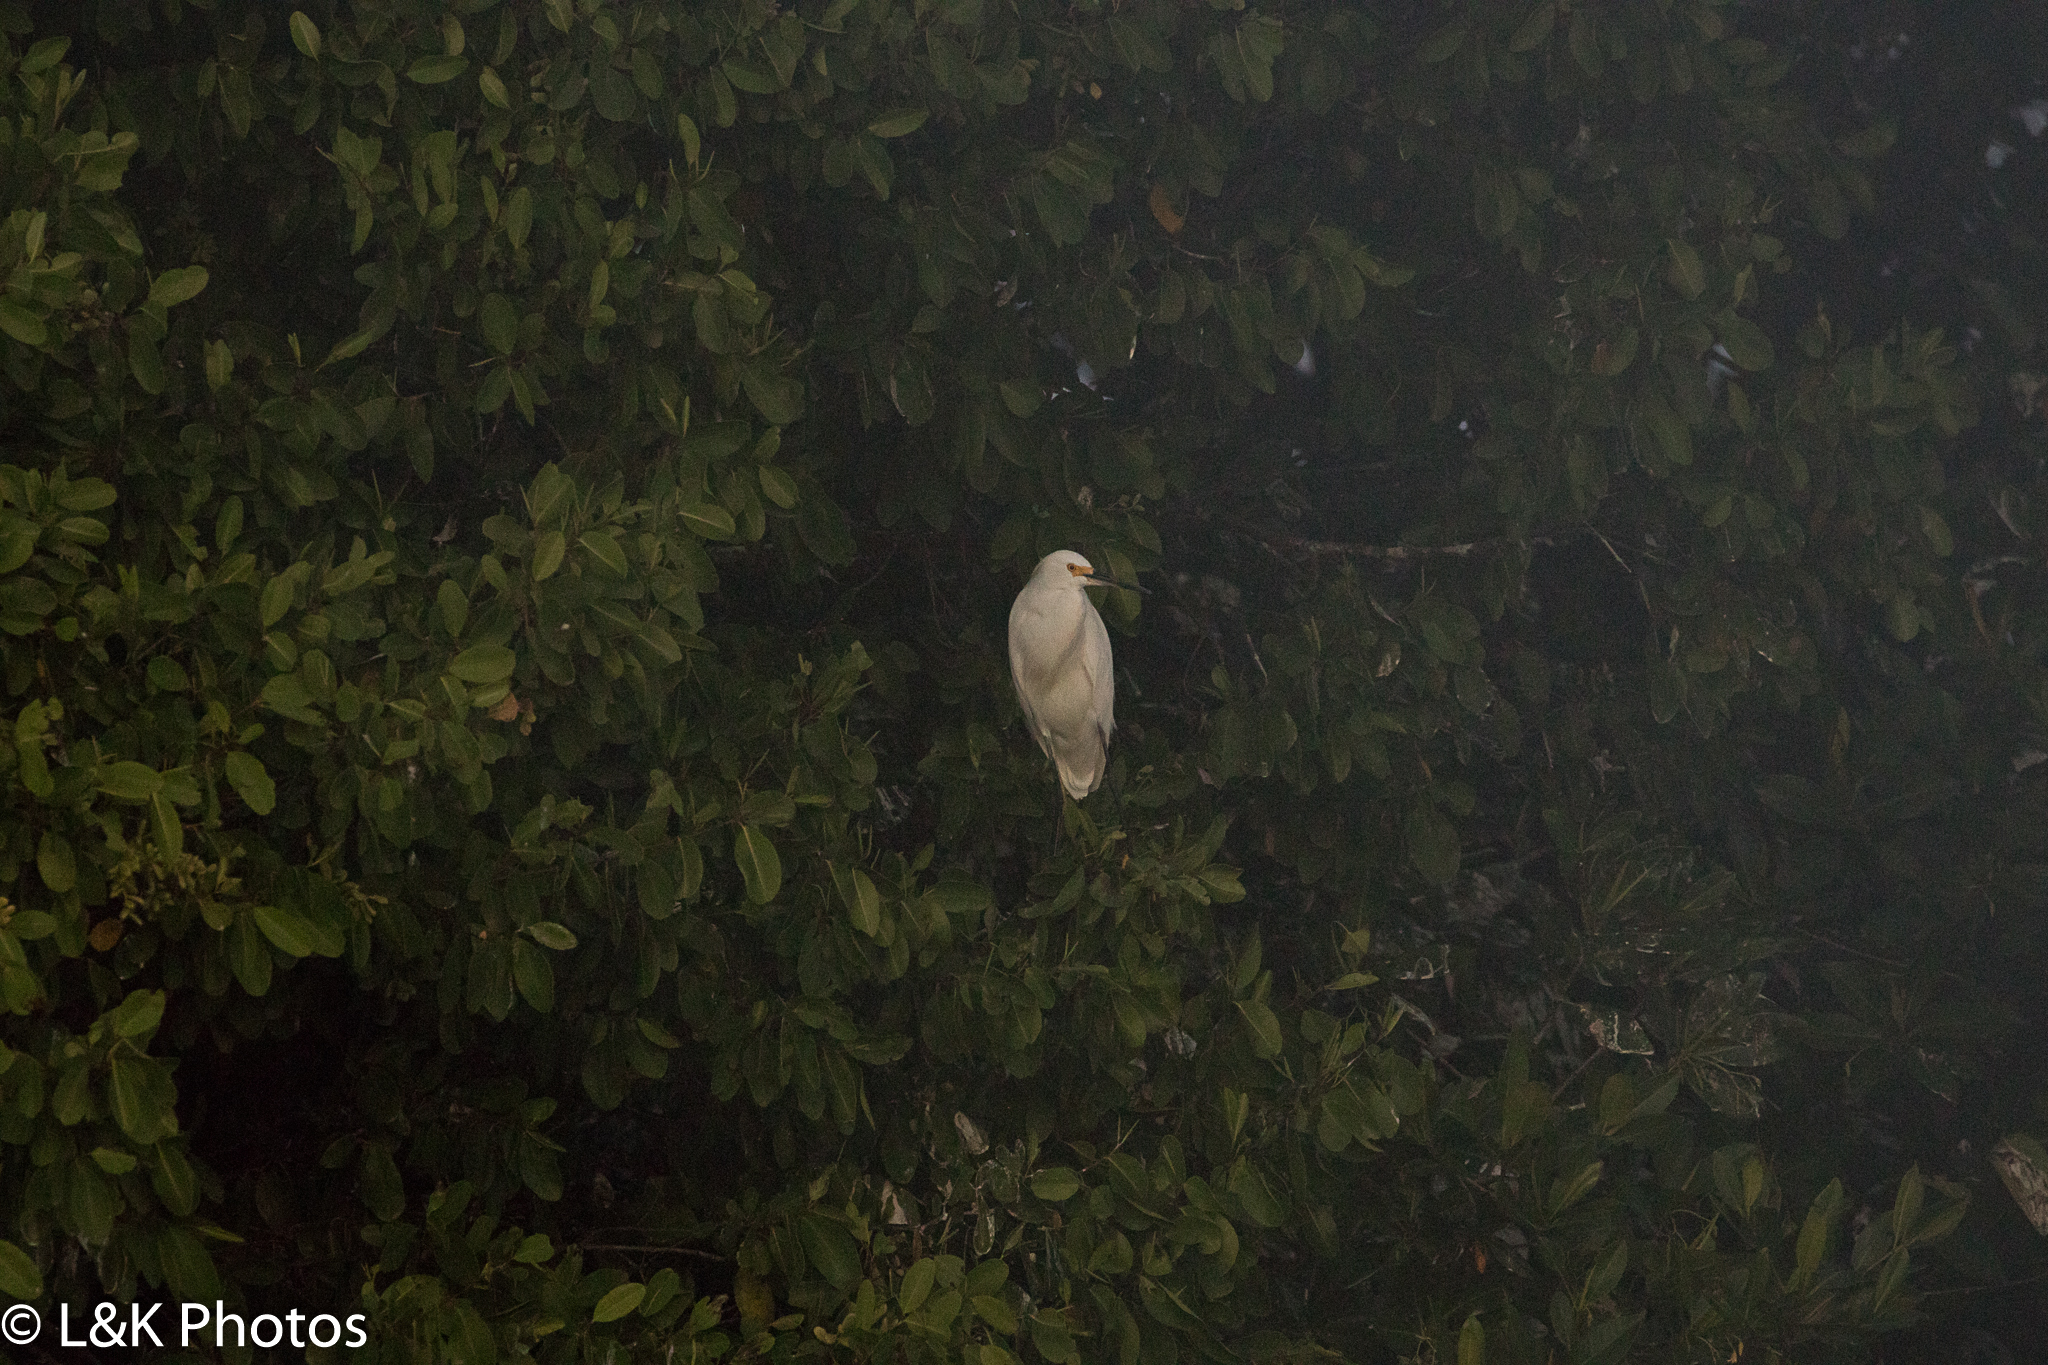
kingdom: Animalia
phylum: Chordata
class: Aves
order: Pelecaniformes
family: Ardeidae
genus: Egretta
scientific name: Egretta thula
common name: Snowy egret
